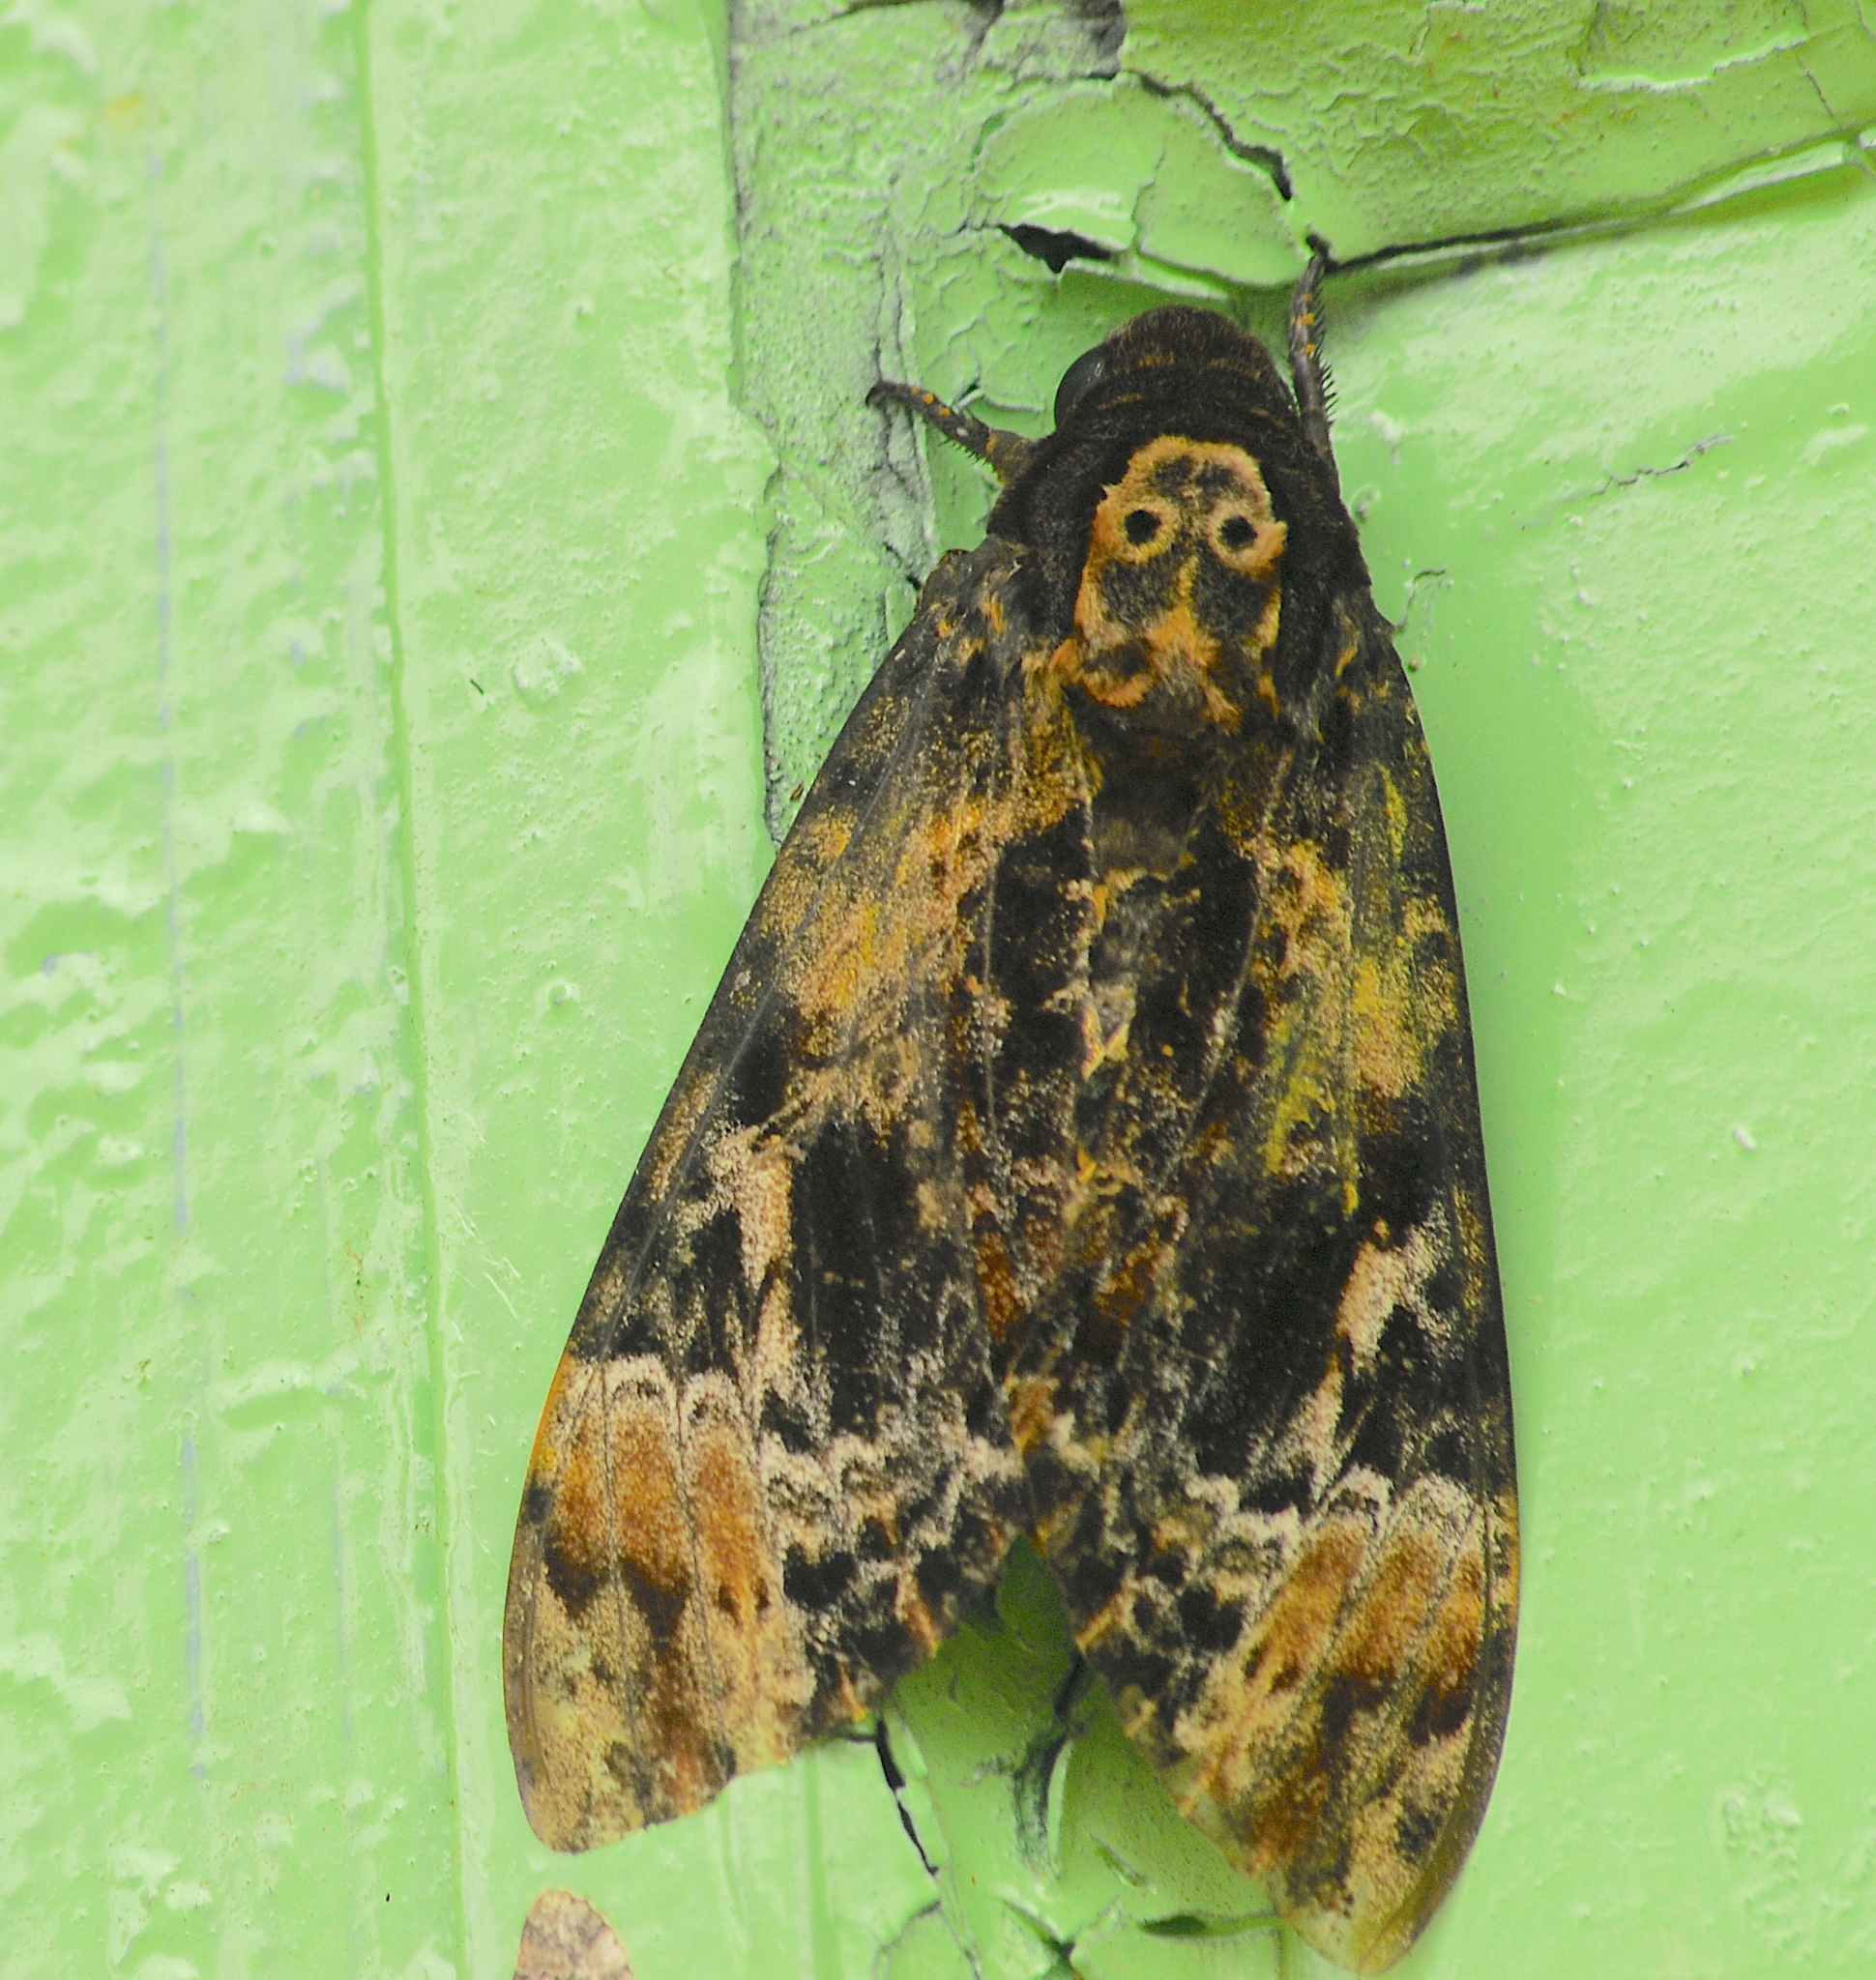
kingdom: Animalia
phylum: Arthropoda
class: Insecta
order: Lepidoptera
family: Sphingidae
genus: Acherontia
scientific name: Acherontia lachesis
